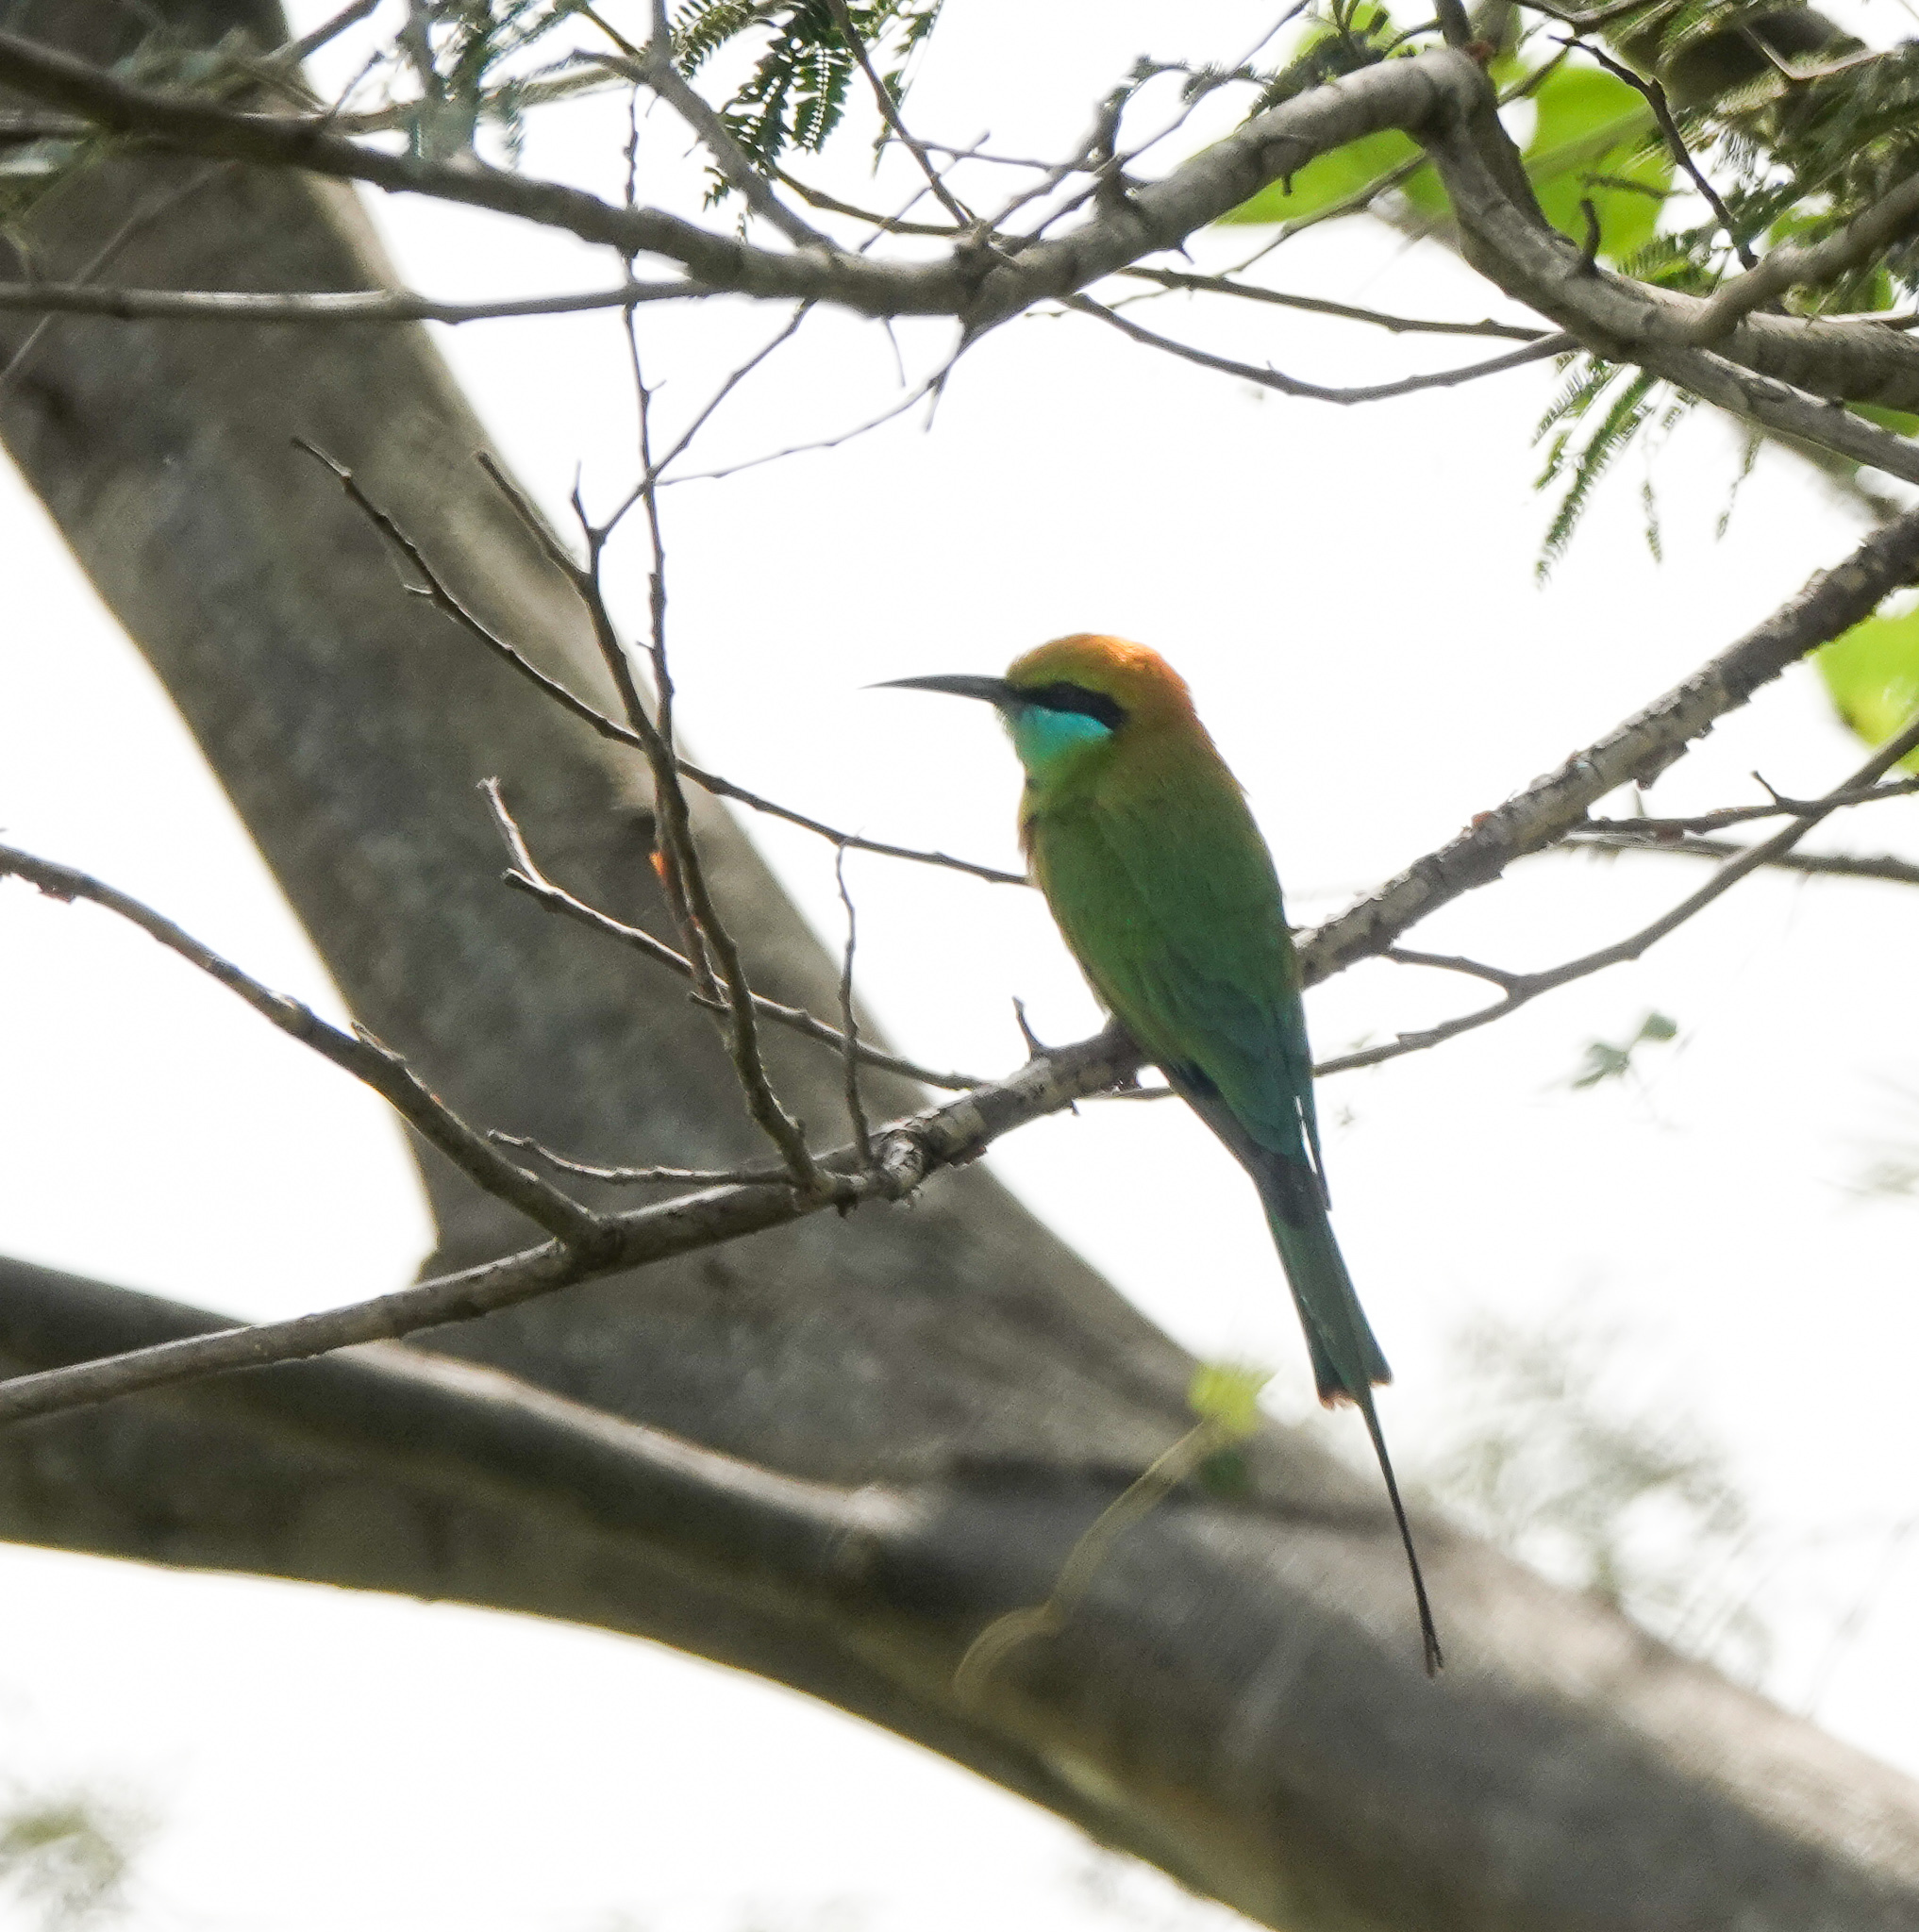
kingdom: Animalia
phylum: Chordata
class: Aves
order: Coraciiformes
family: Meropidae
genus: Merops
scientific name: Merops orientalis
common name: Green bee-eater
